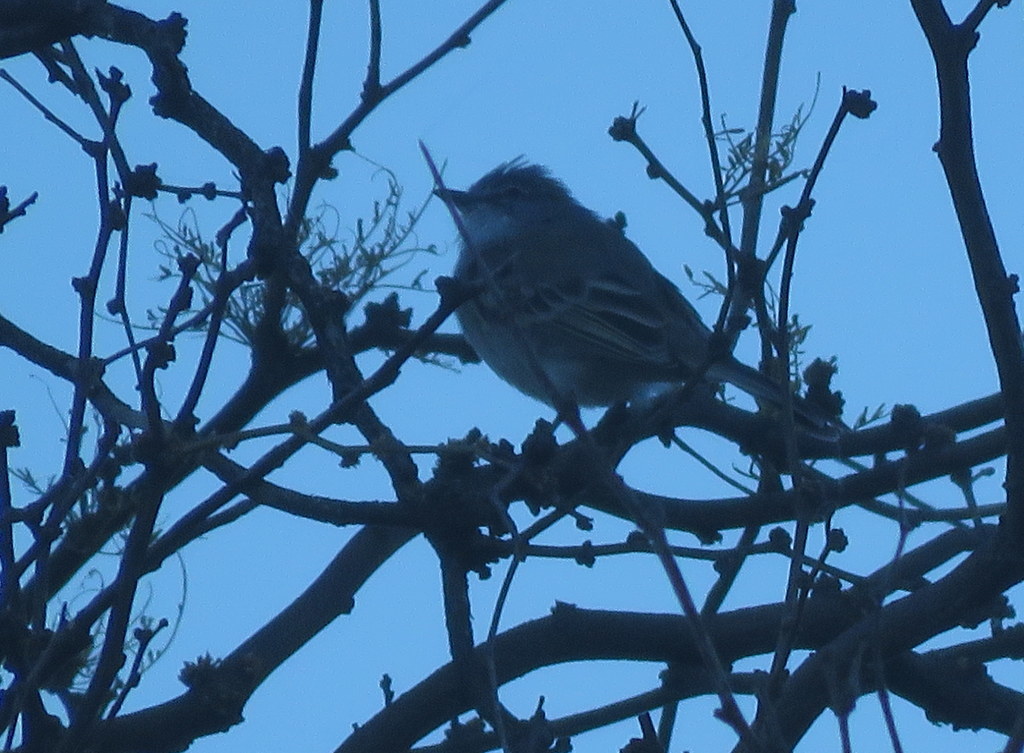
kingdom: Animalia
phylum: Chordata
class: Aves
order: Passeriformes
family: Tyrannidae
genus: Suiriri
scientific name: Suiriri suiriri
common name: Suiriri flycatcher
